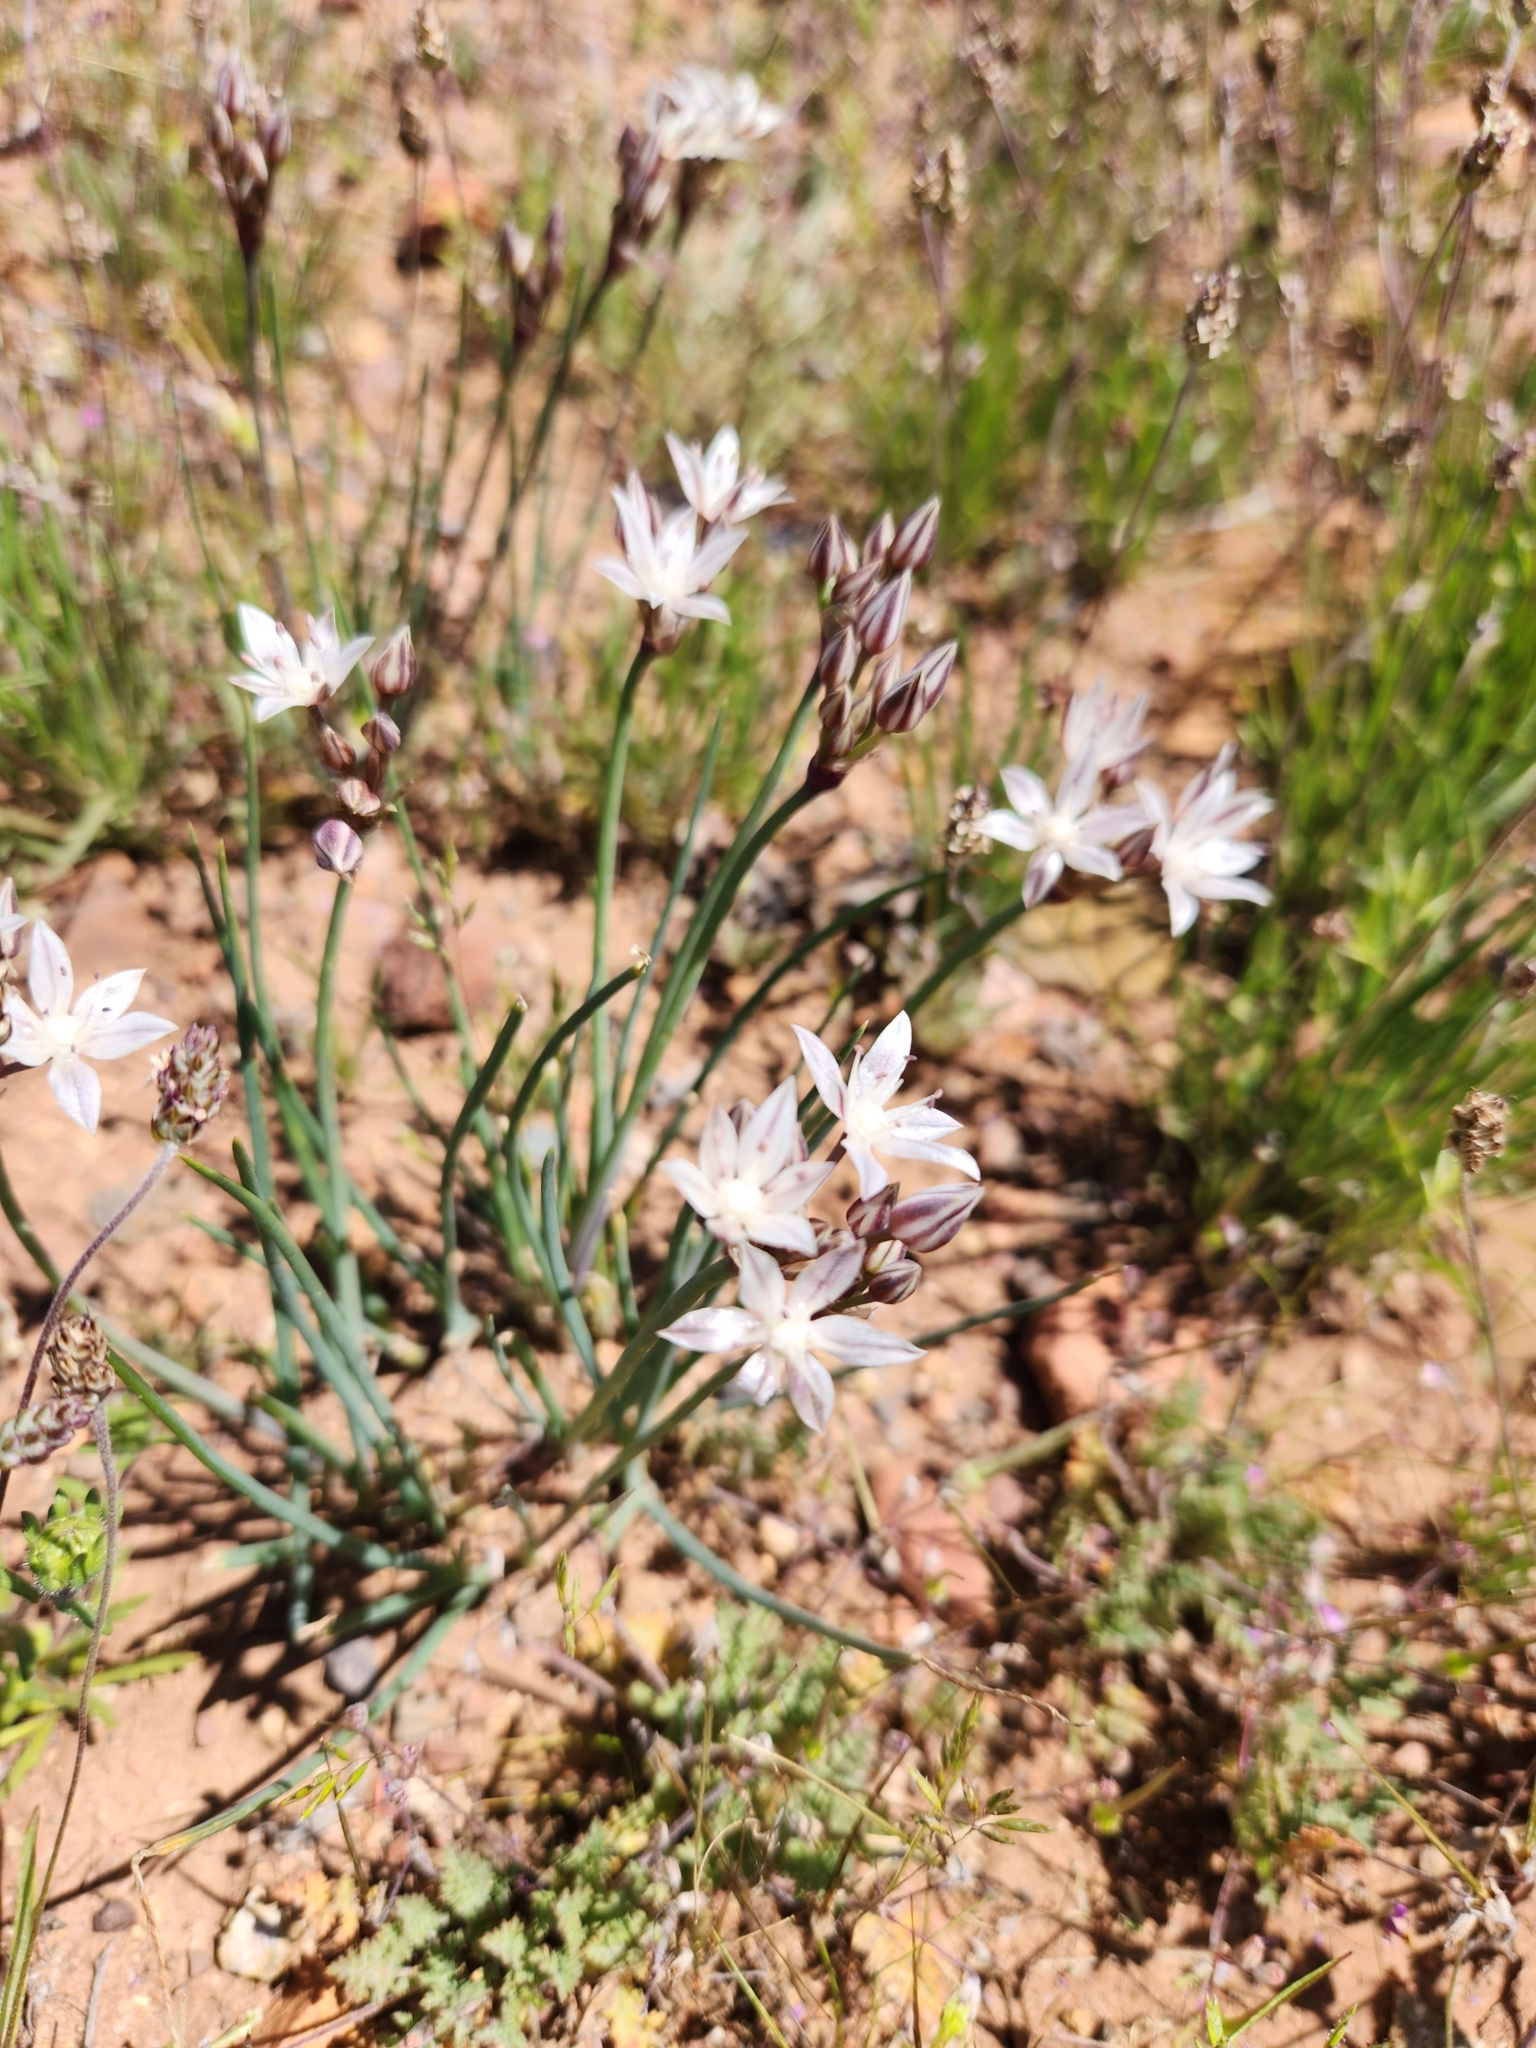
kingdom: Plantae
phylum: Tracheophyta
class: Liliopsida
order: Asparagales
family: Amaryllidaceae
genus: Allium
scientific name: Allium haematochiton
